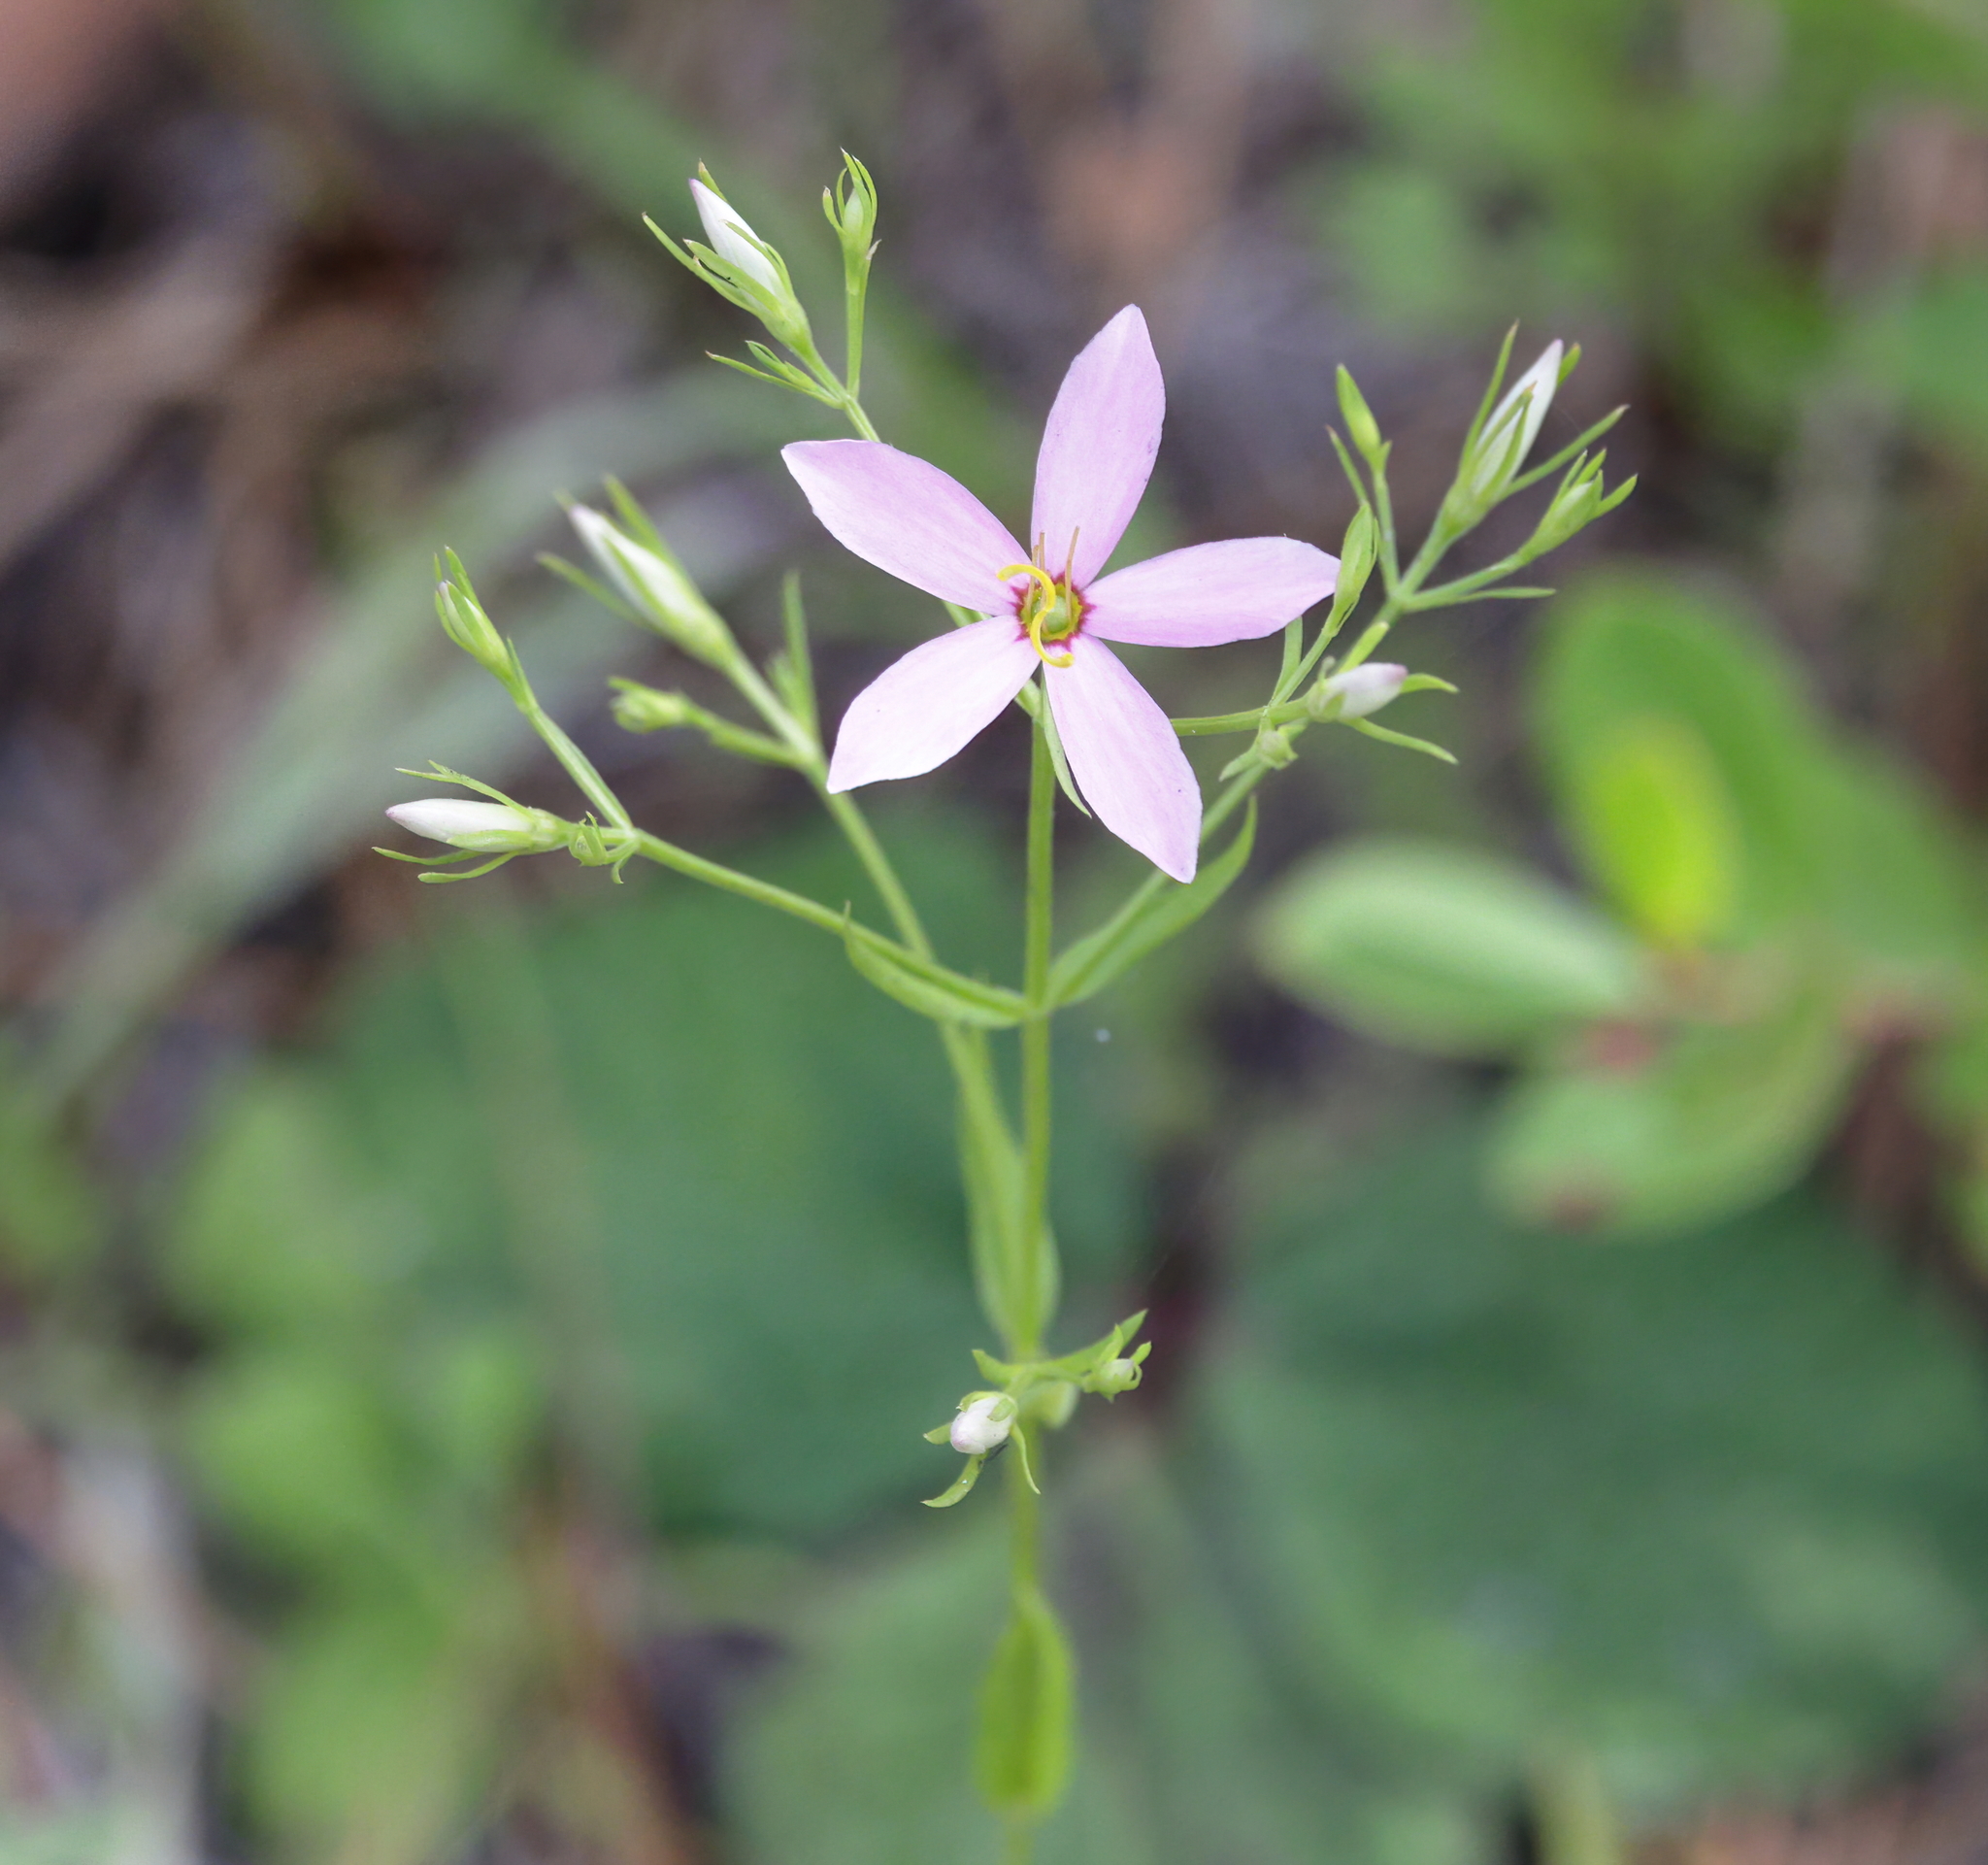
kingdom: Plantae
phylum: Tracheophyta
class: Magnoliopsida
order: Gentianales
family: Gentianaceae
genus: Sabatia
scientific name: Sabatia brachiata
